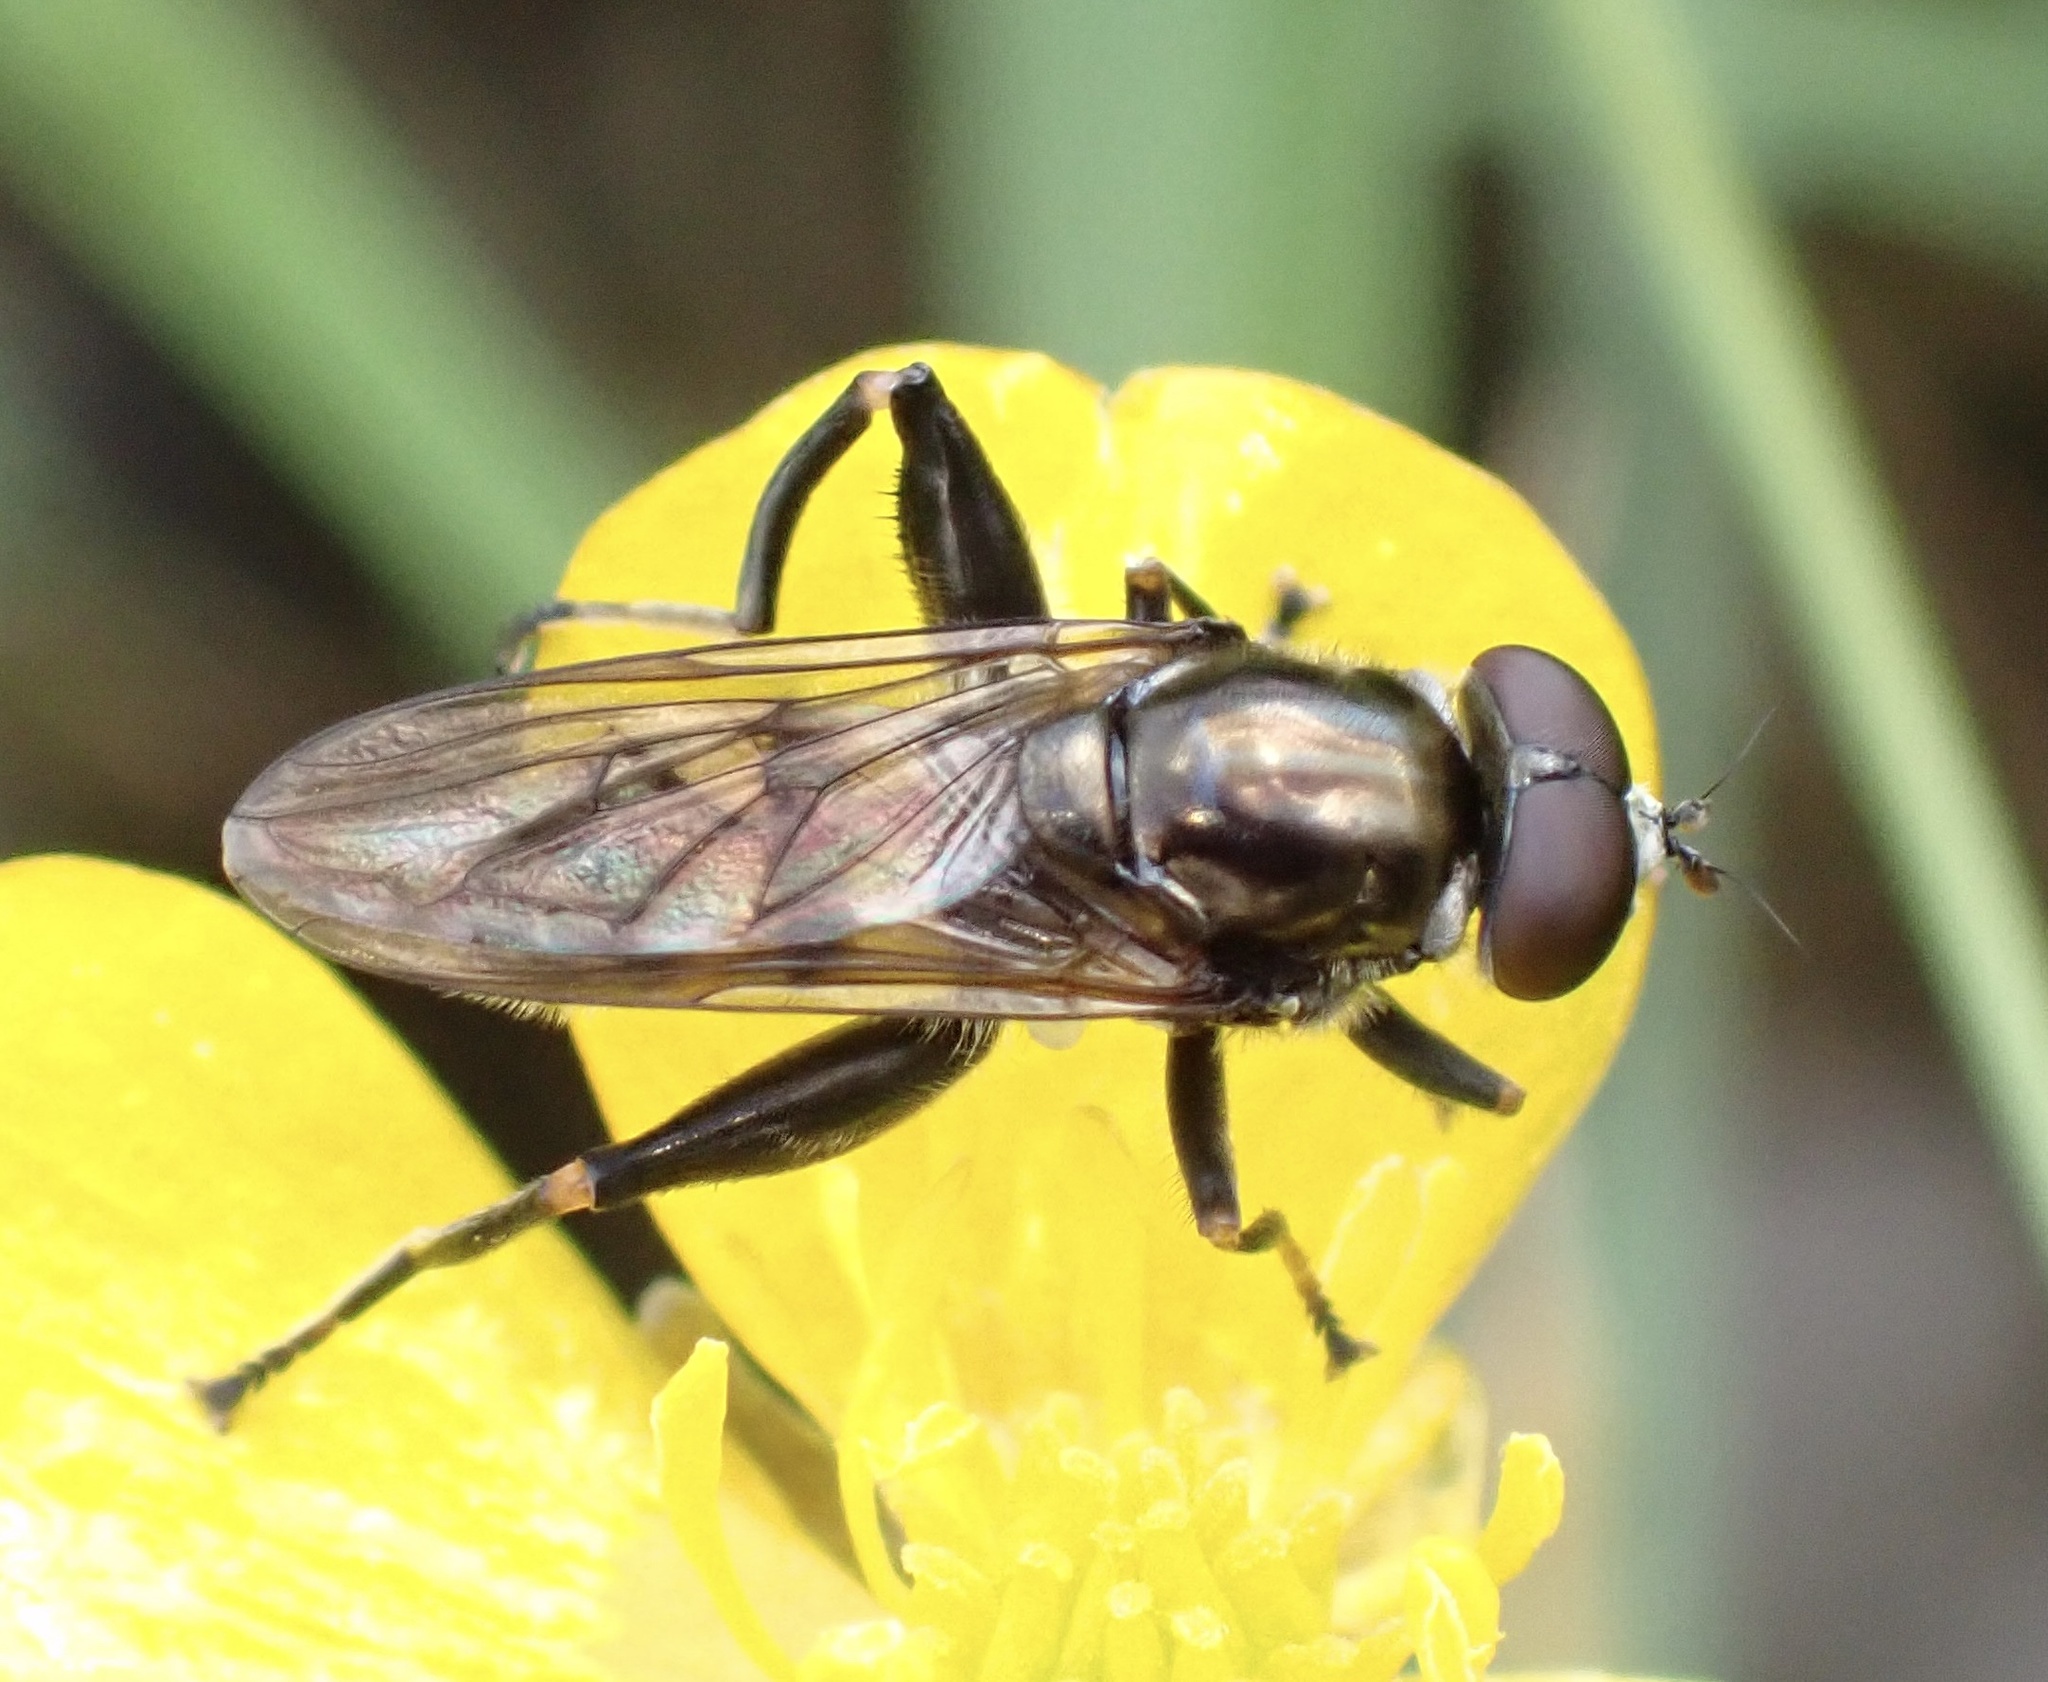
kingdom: Animalia
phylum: Arthropoda
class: Insecta
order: Diptera
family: Syrphidae
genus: Chalcosyrphus
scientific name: Chalcosyrphus nemorum
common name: Dusky-banded forest fly
